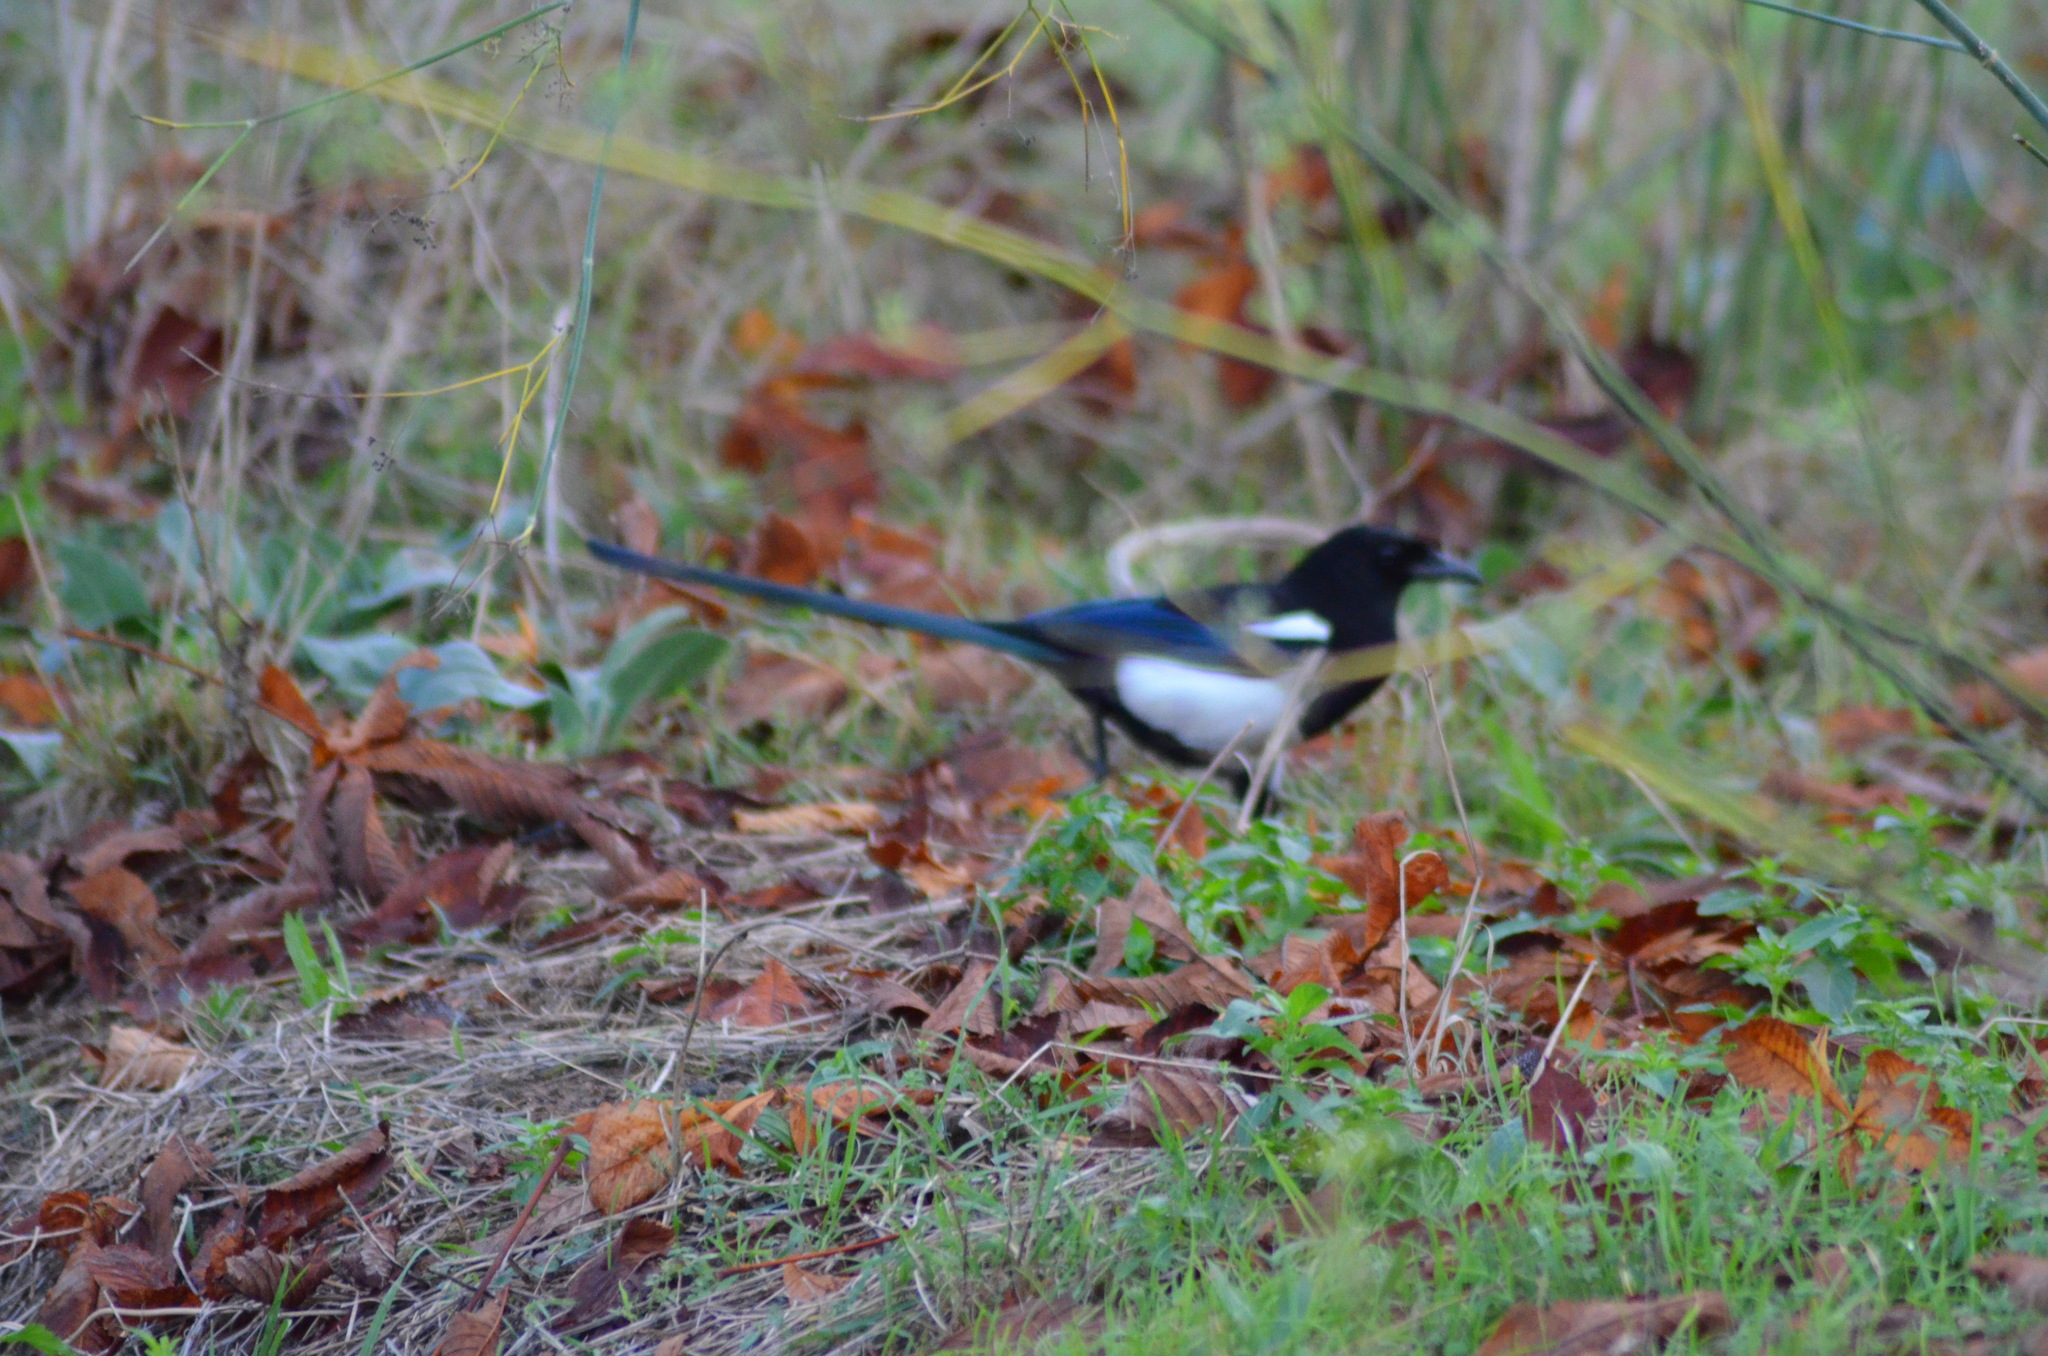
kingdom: Animalia
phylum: Chordata
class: Aves
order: Passeriformes
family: Corvidae
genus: Pica
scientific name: Pica pica
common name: Eurasian magpie
